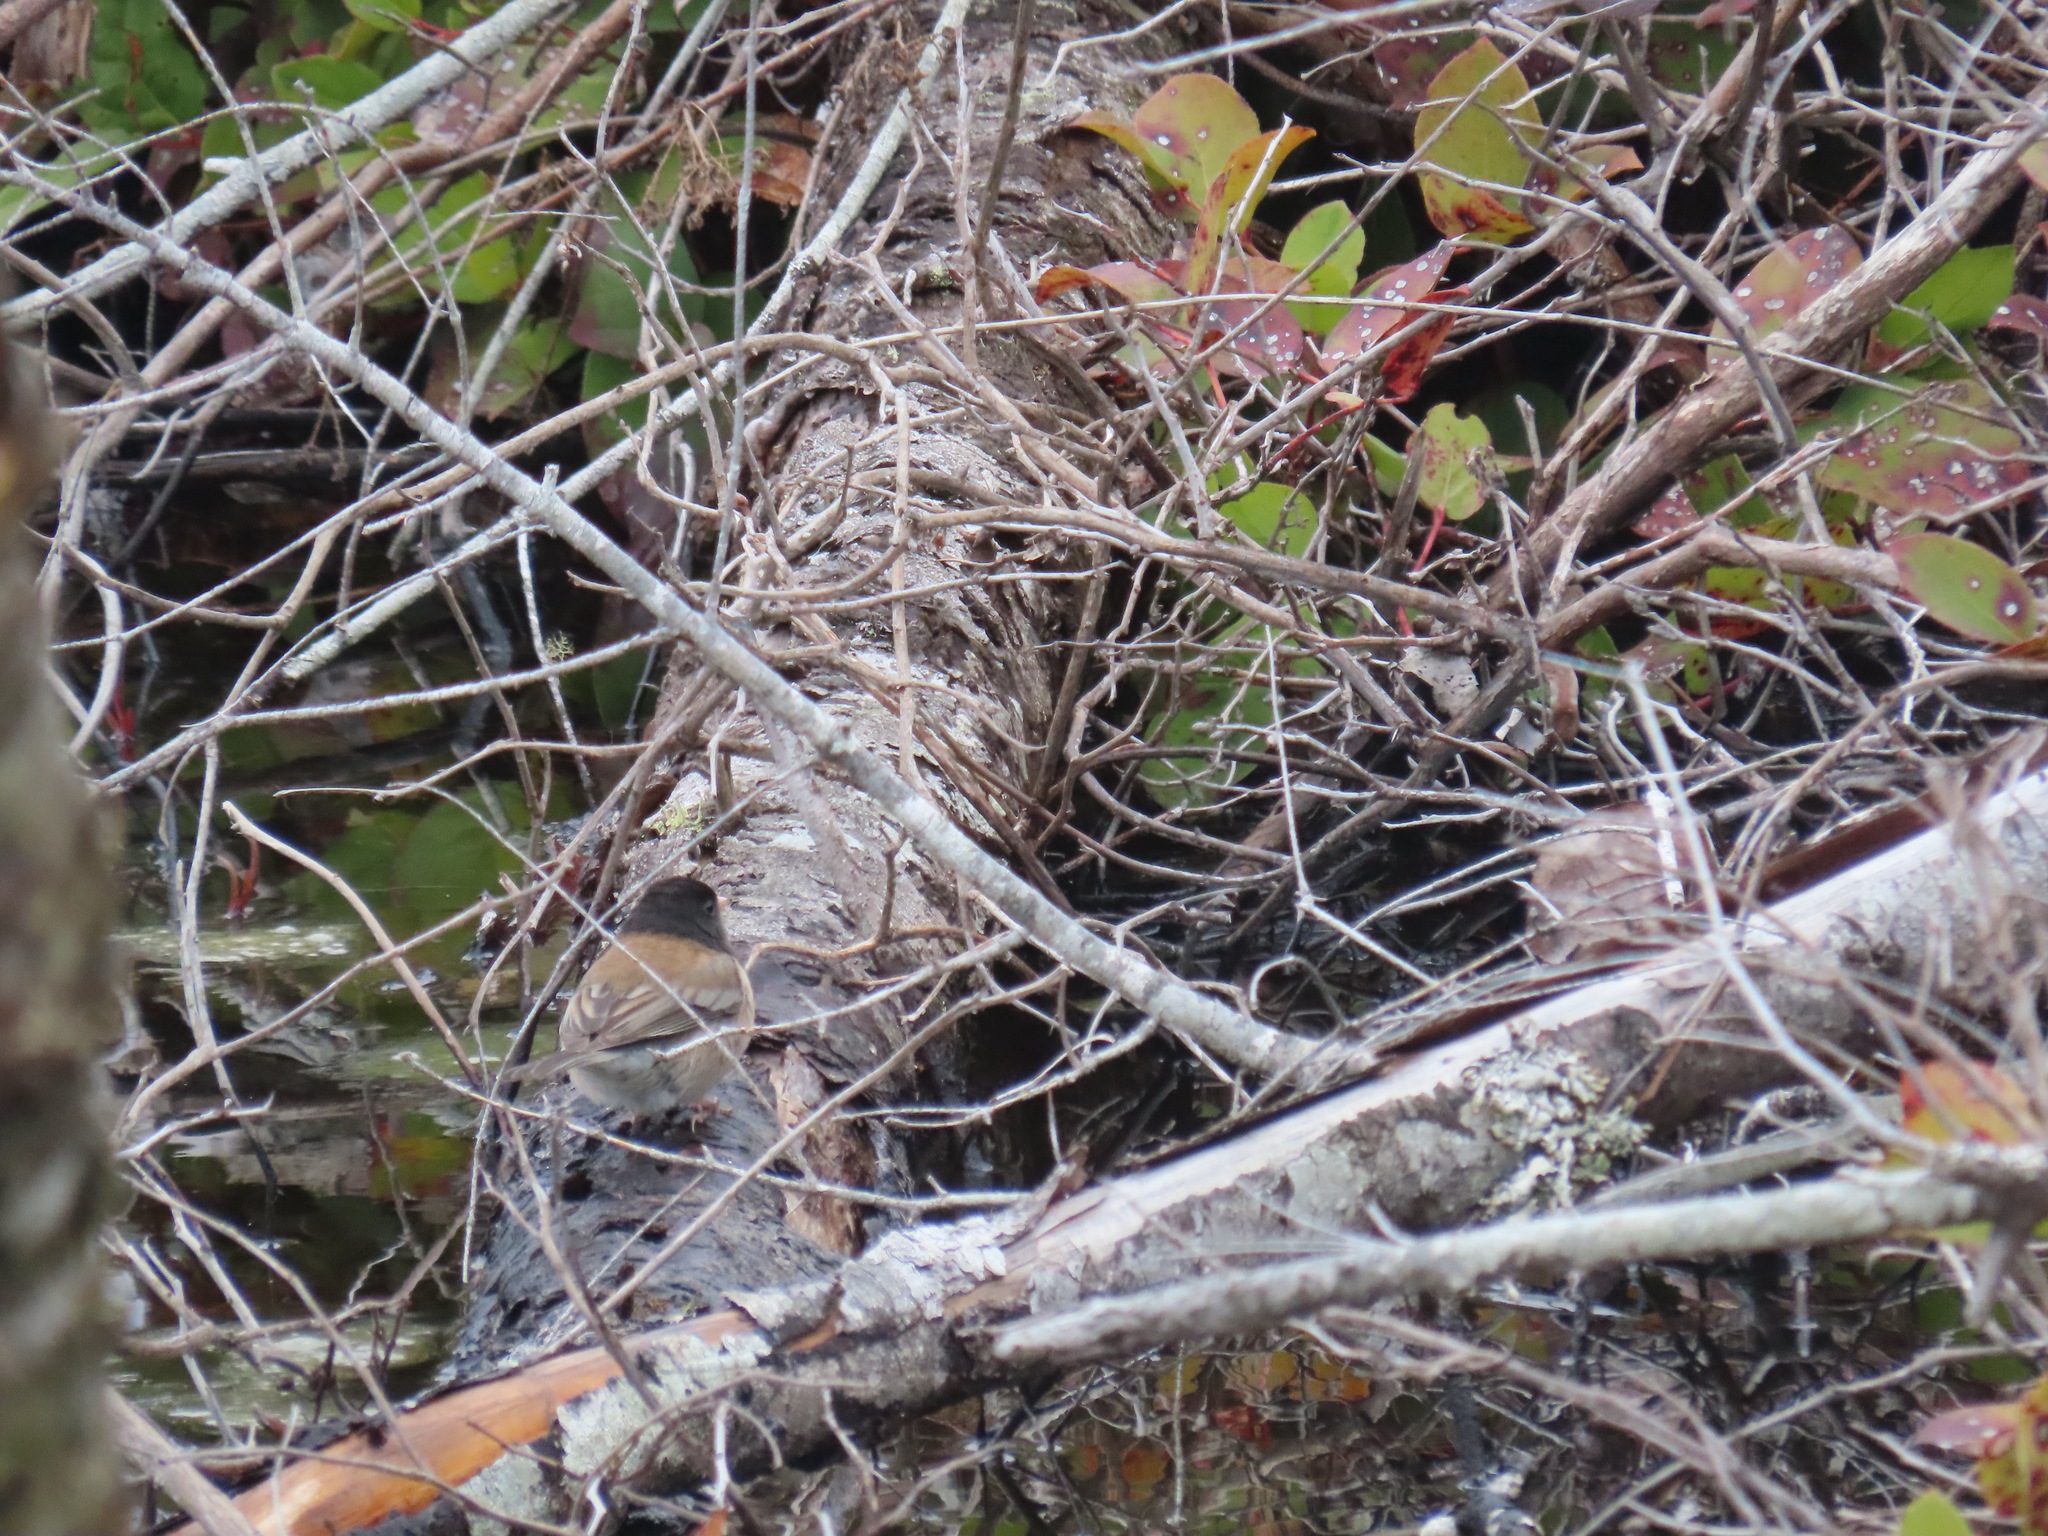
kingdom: Animalia
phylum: Chordata
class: Aves
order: Passeriformes
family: Passerellidae
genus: Junco
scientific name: Junco hyemalis
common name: Dark-eyed junco
